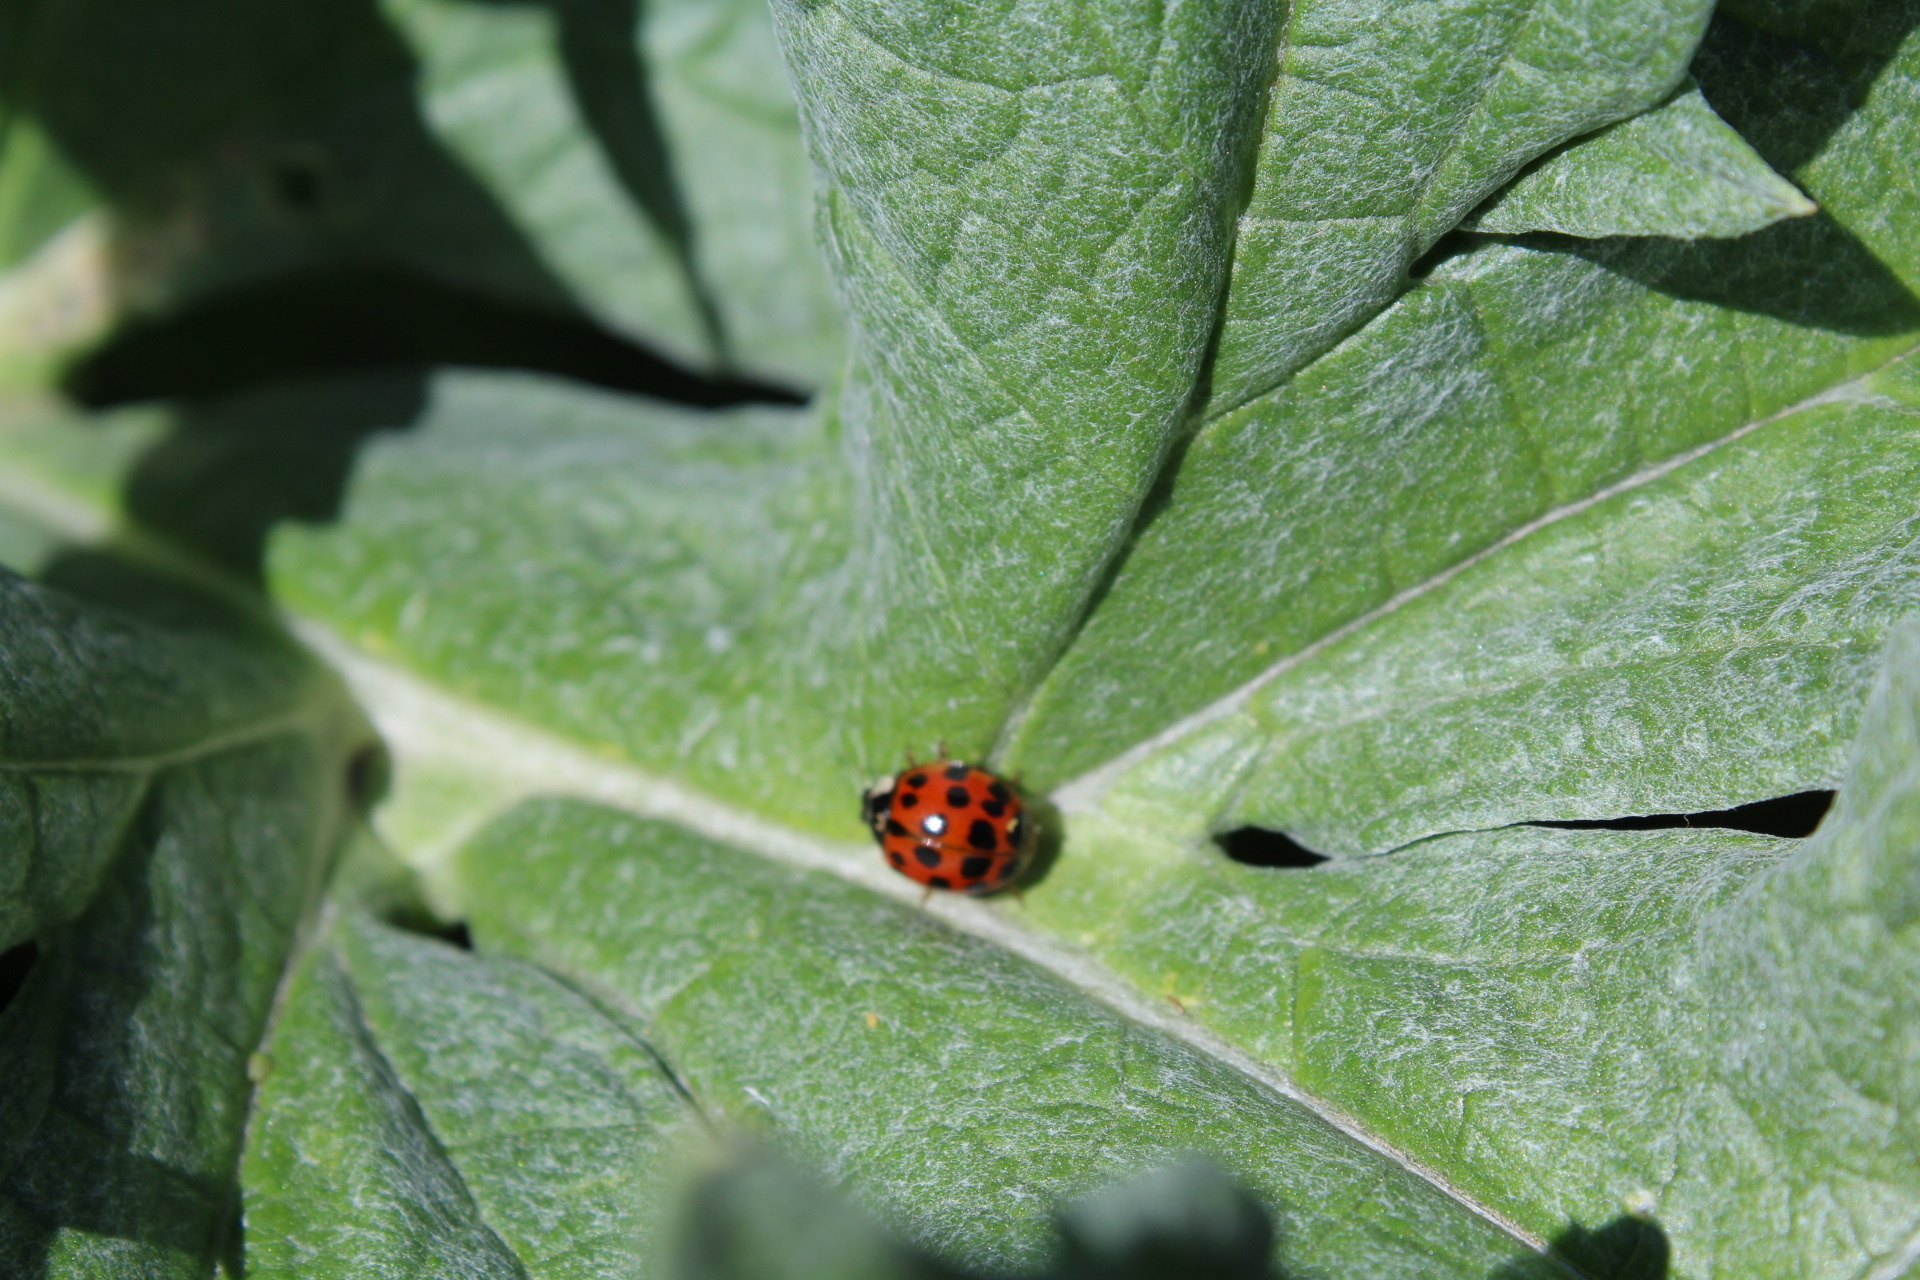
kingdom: Animalia
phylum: Arthropoda
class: Insecta
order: Coleoptera
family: Coccinellidae
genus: Harmonia
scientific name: Harmonia axyridis
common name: Harlequin ladybird
